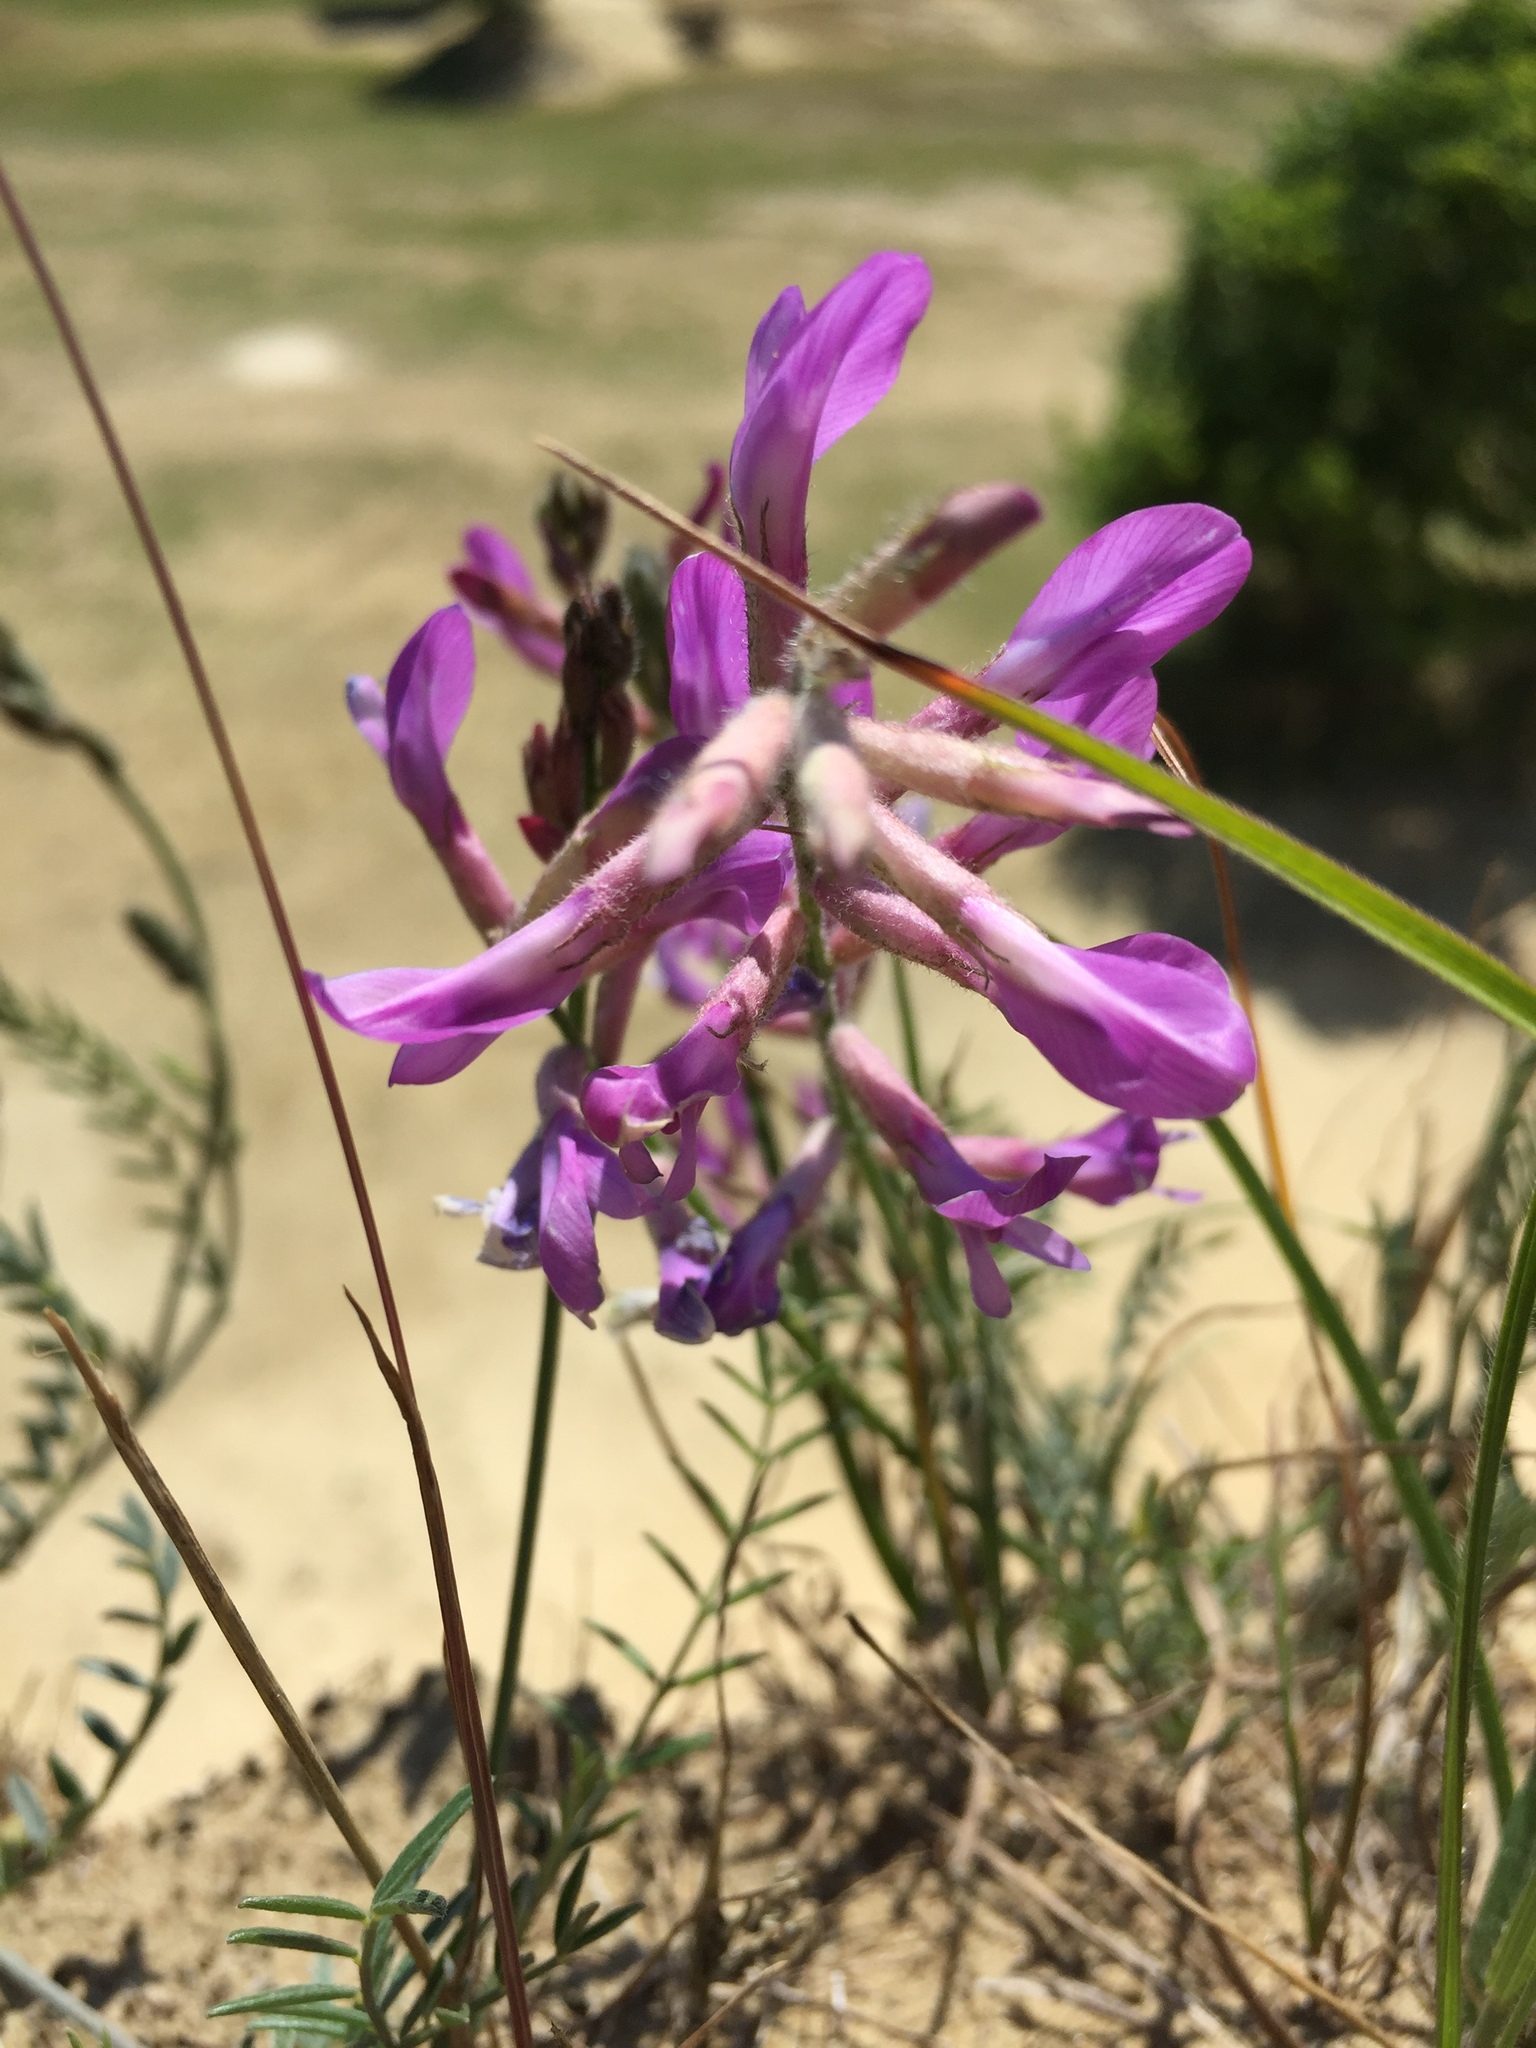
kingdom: Plantae
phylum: Tracheophyta
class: Magnoliopsida
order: Fabales
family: Fabaceae
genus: Astragalus
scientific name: Astragalus varius
